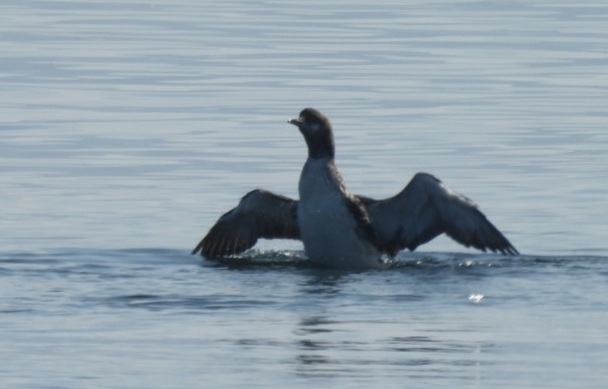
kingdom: Animalia
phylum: Chordata
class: Aves
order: Gaviiformes
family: Gaviidae
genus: Gavia
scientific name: Gavia arctica
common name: Black-throated loon
